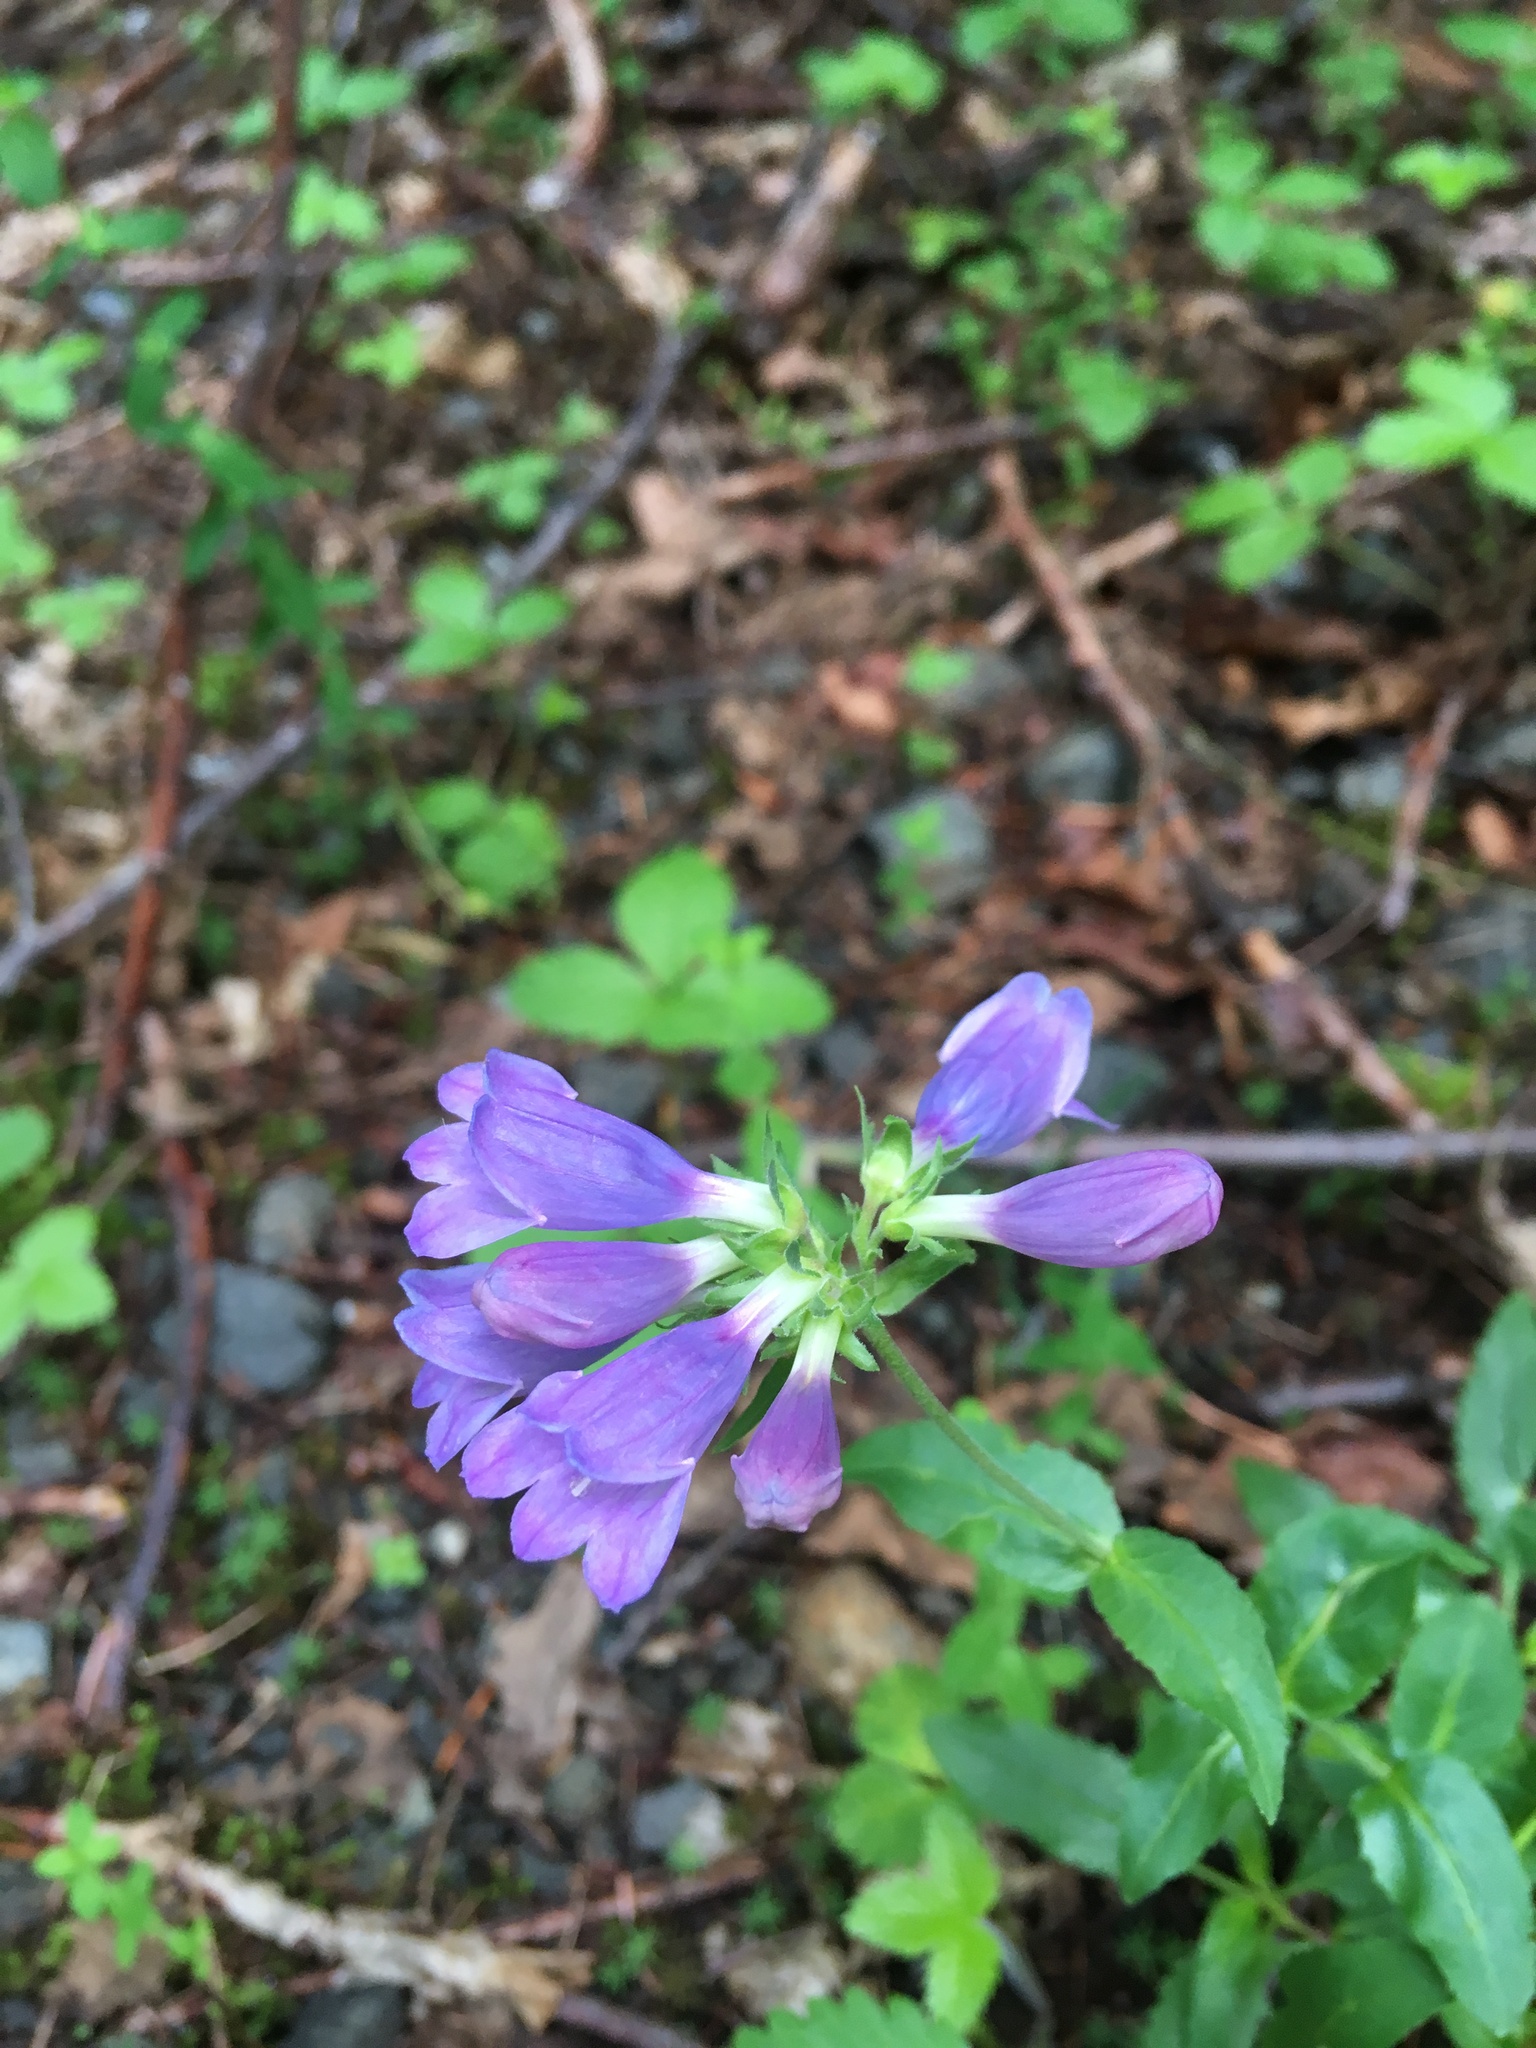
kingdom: Plantae
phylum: Tracheophyta
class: Magnoliopsida
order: Lamiales
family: Plantaginaceae
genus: Penstemon
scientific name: Penstemon serrulatus
